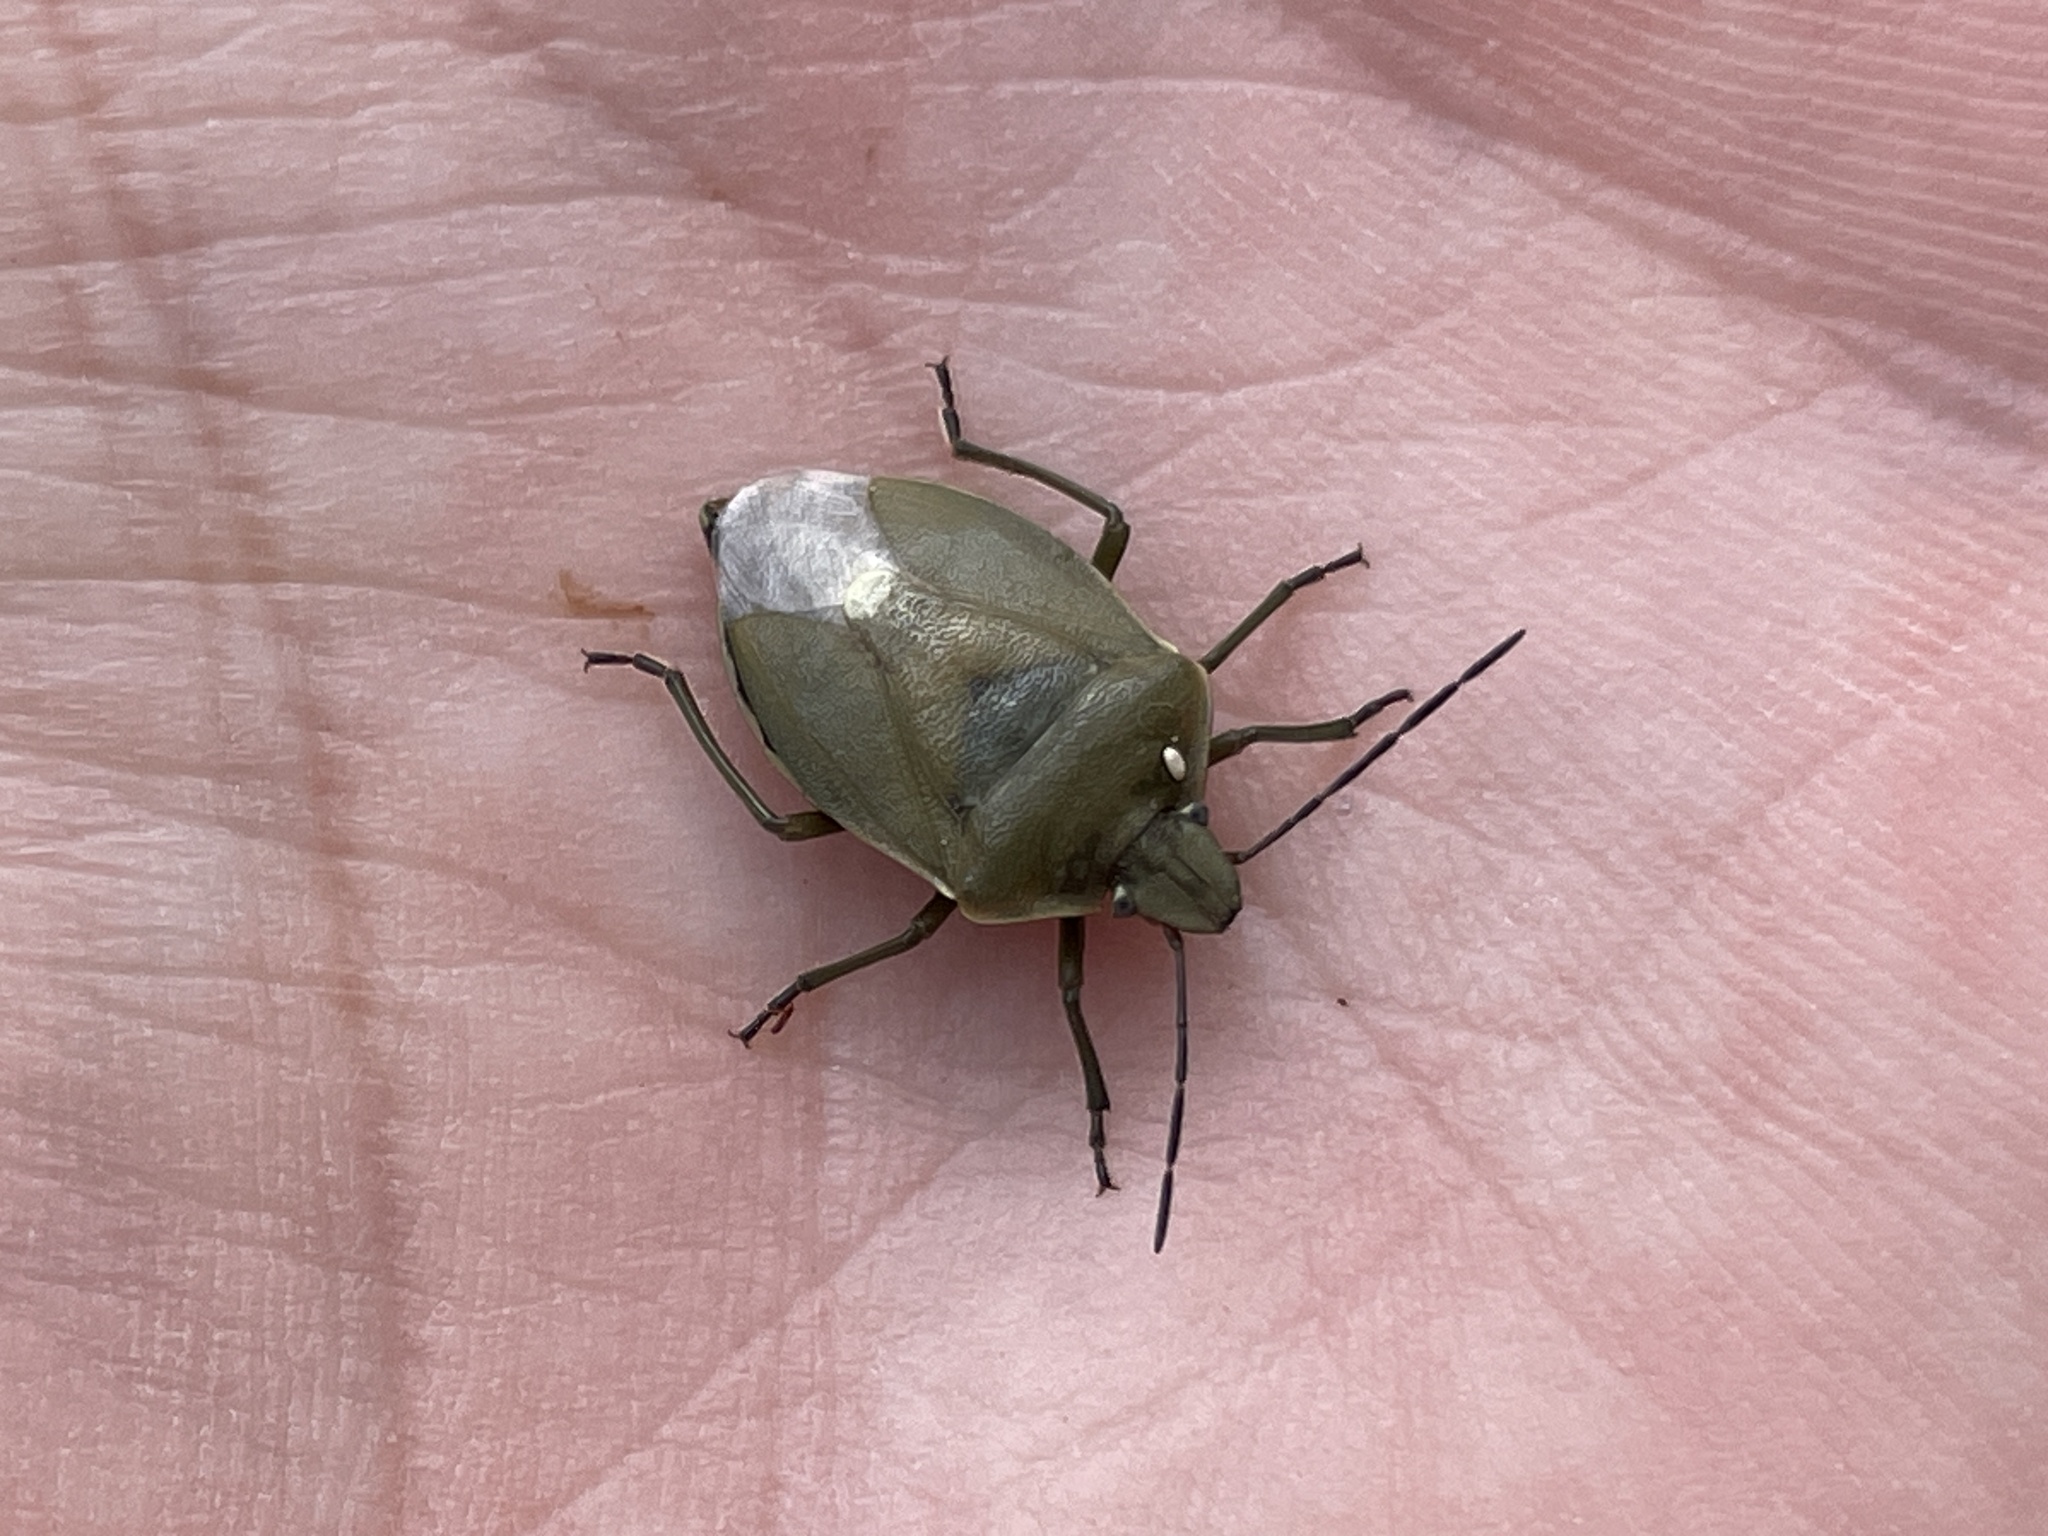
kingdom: Animalia
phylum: Arthropoda
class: Insecta
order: Hemiptera
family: Pentatomidae
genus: Chlorochroa
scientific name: Chlorochroa pinicola
